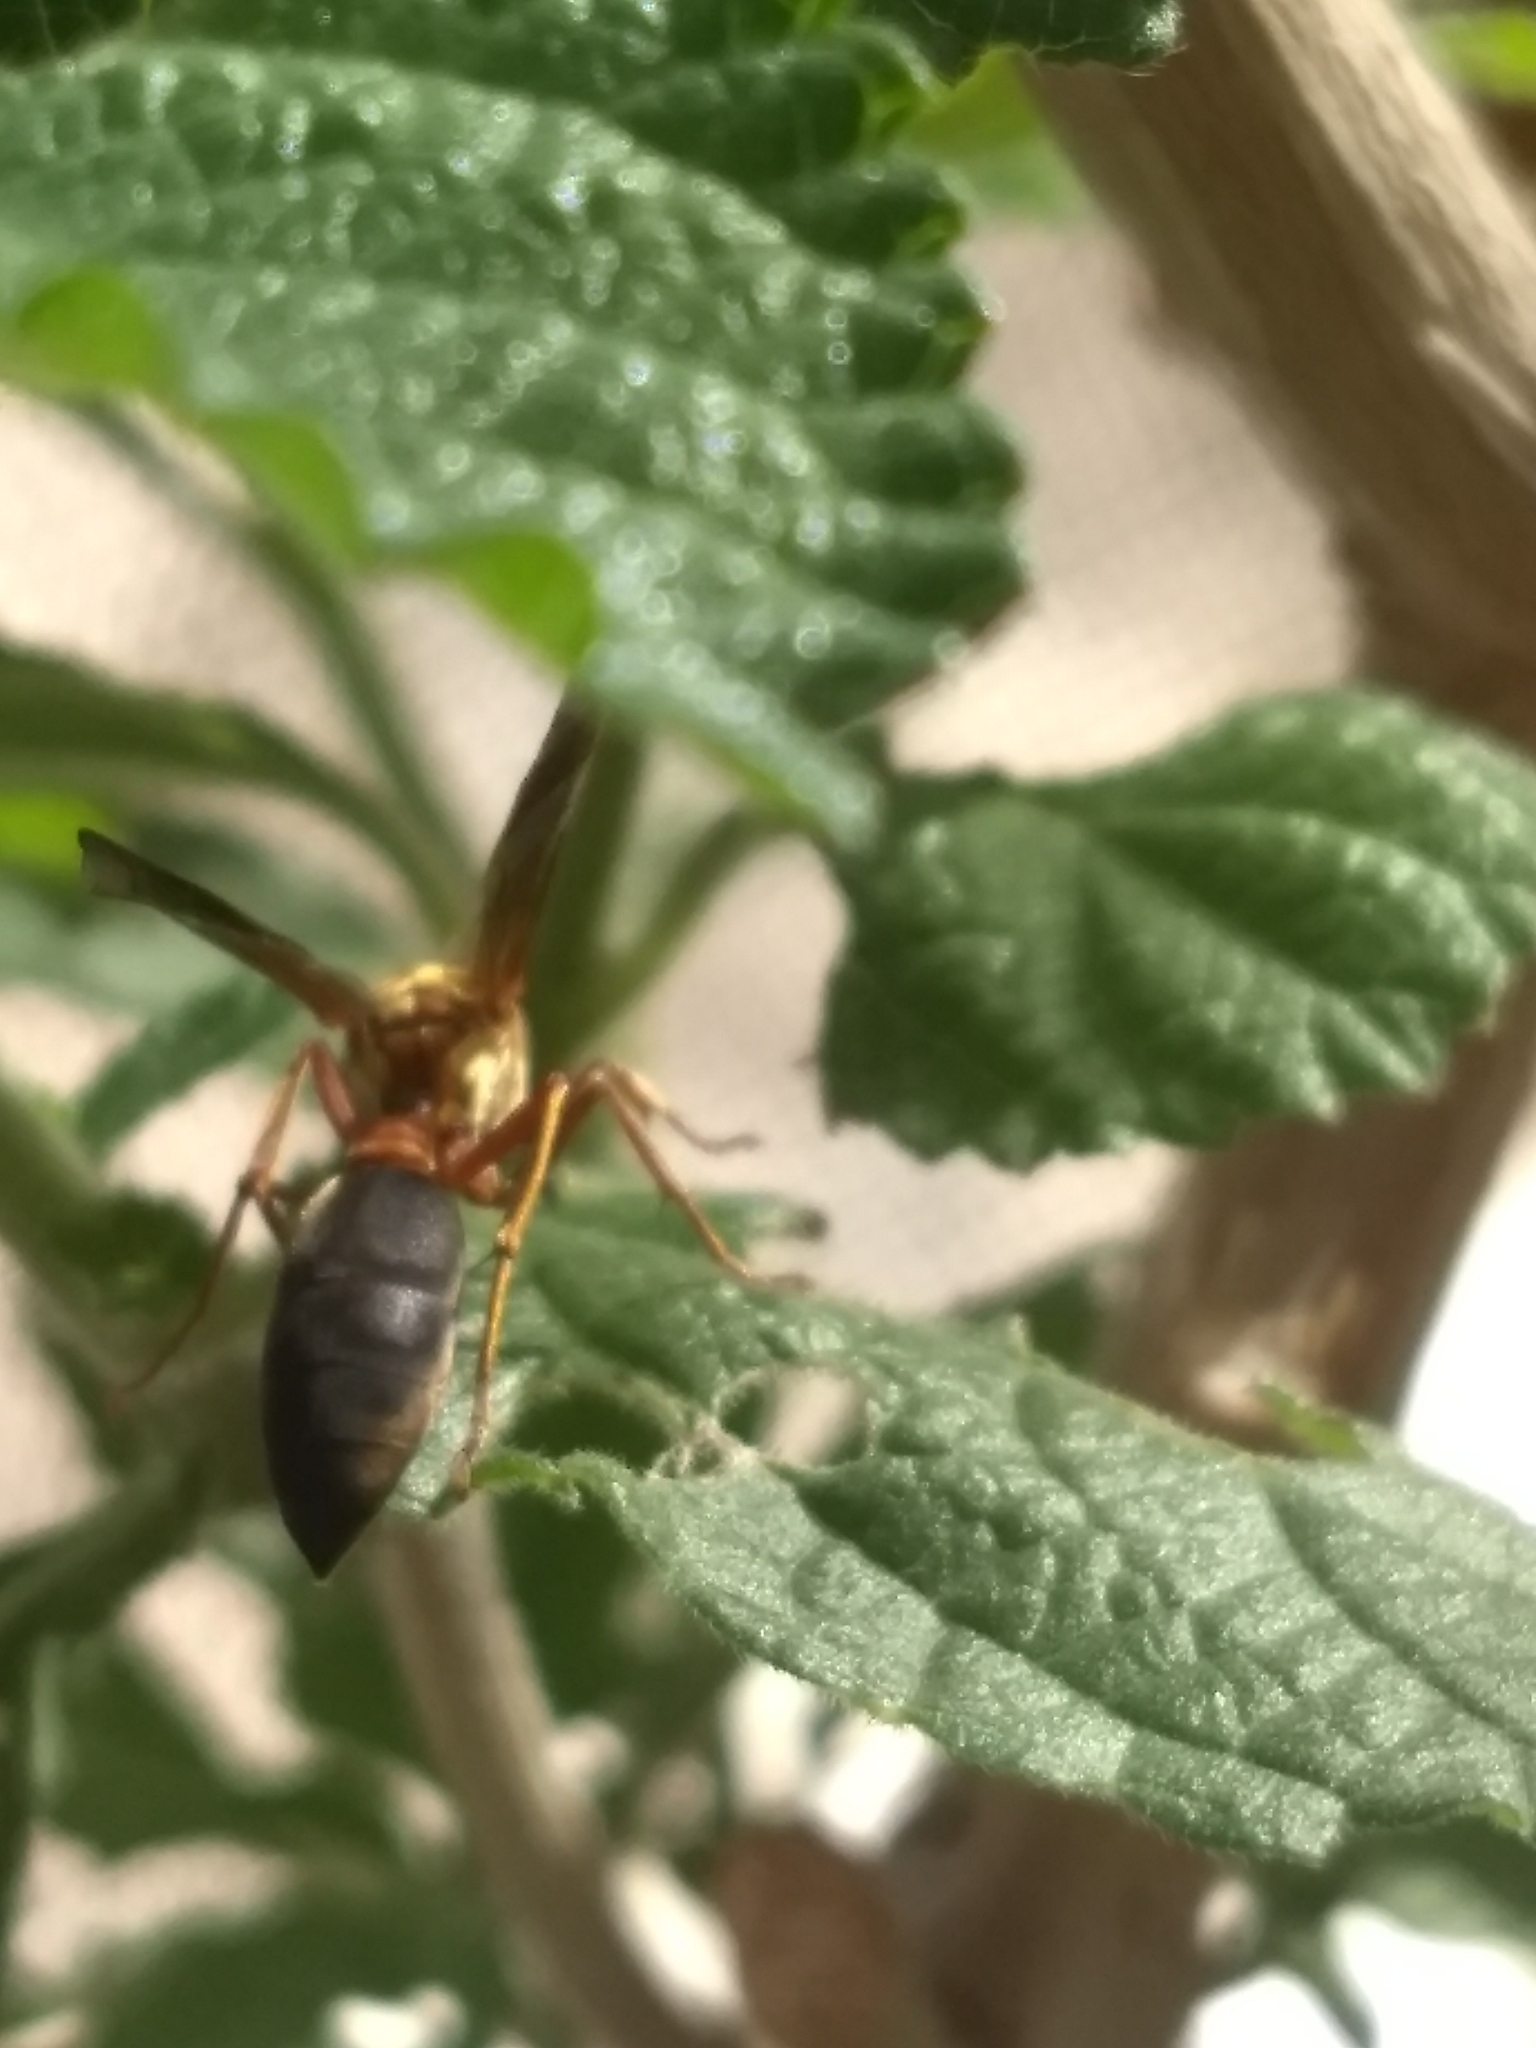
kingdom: Animalia
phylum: Arthropoda
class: Insecta
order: Hymenoptera
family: Eumenidae
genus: Polybia
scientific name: Polybia sericea
